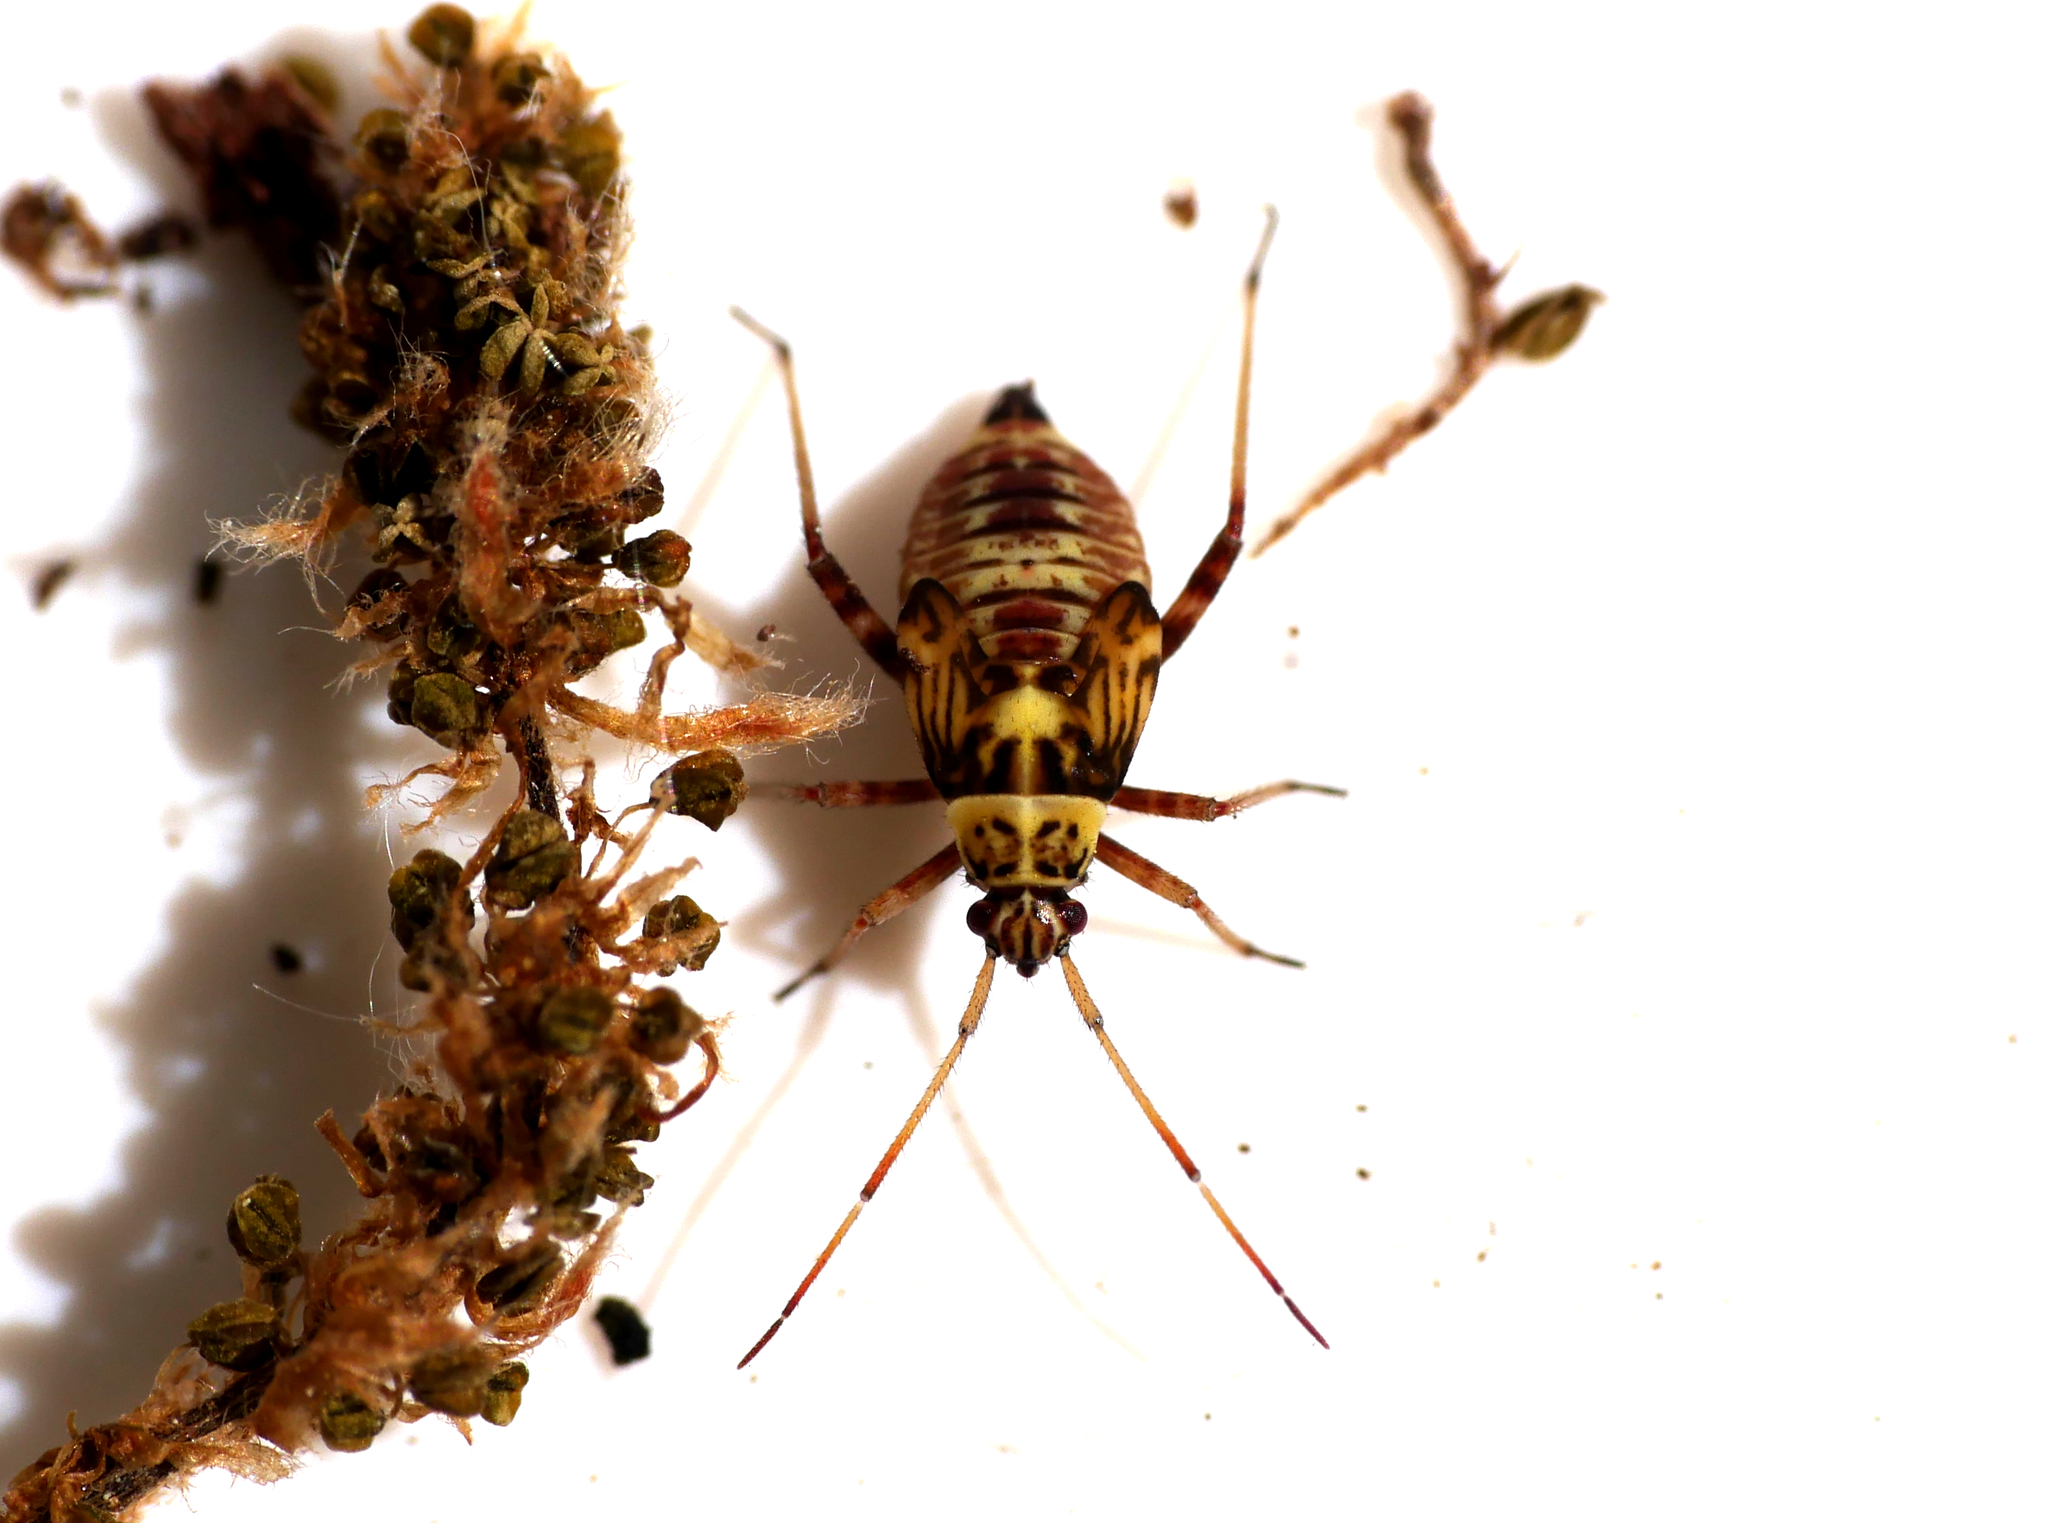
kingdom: Animalia
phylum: Arthropoda
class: Insecta
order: Hemiptera
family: Miridae
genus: Rhabdomiris
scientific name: Rhabdomiris striatellus
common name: Plant bug
